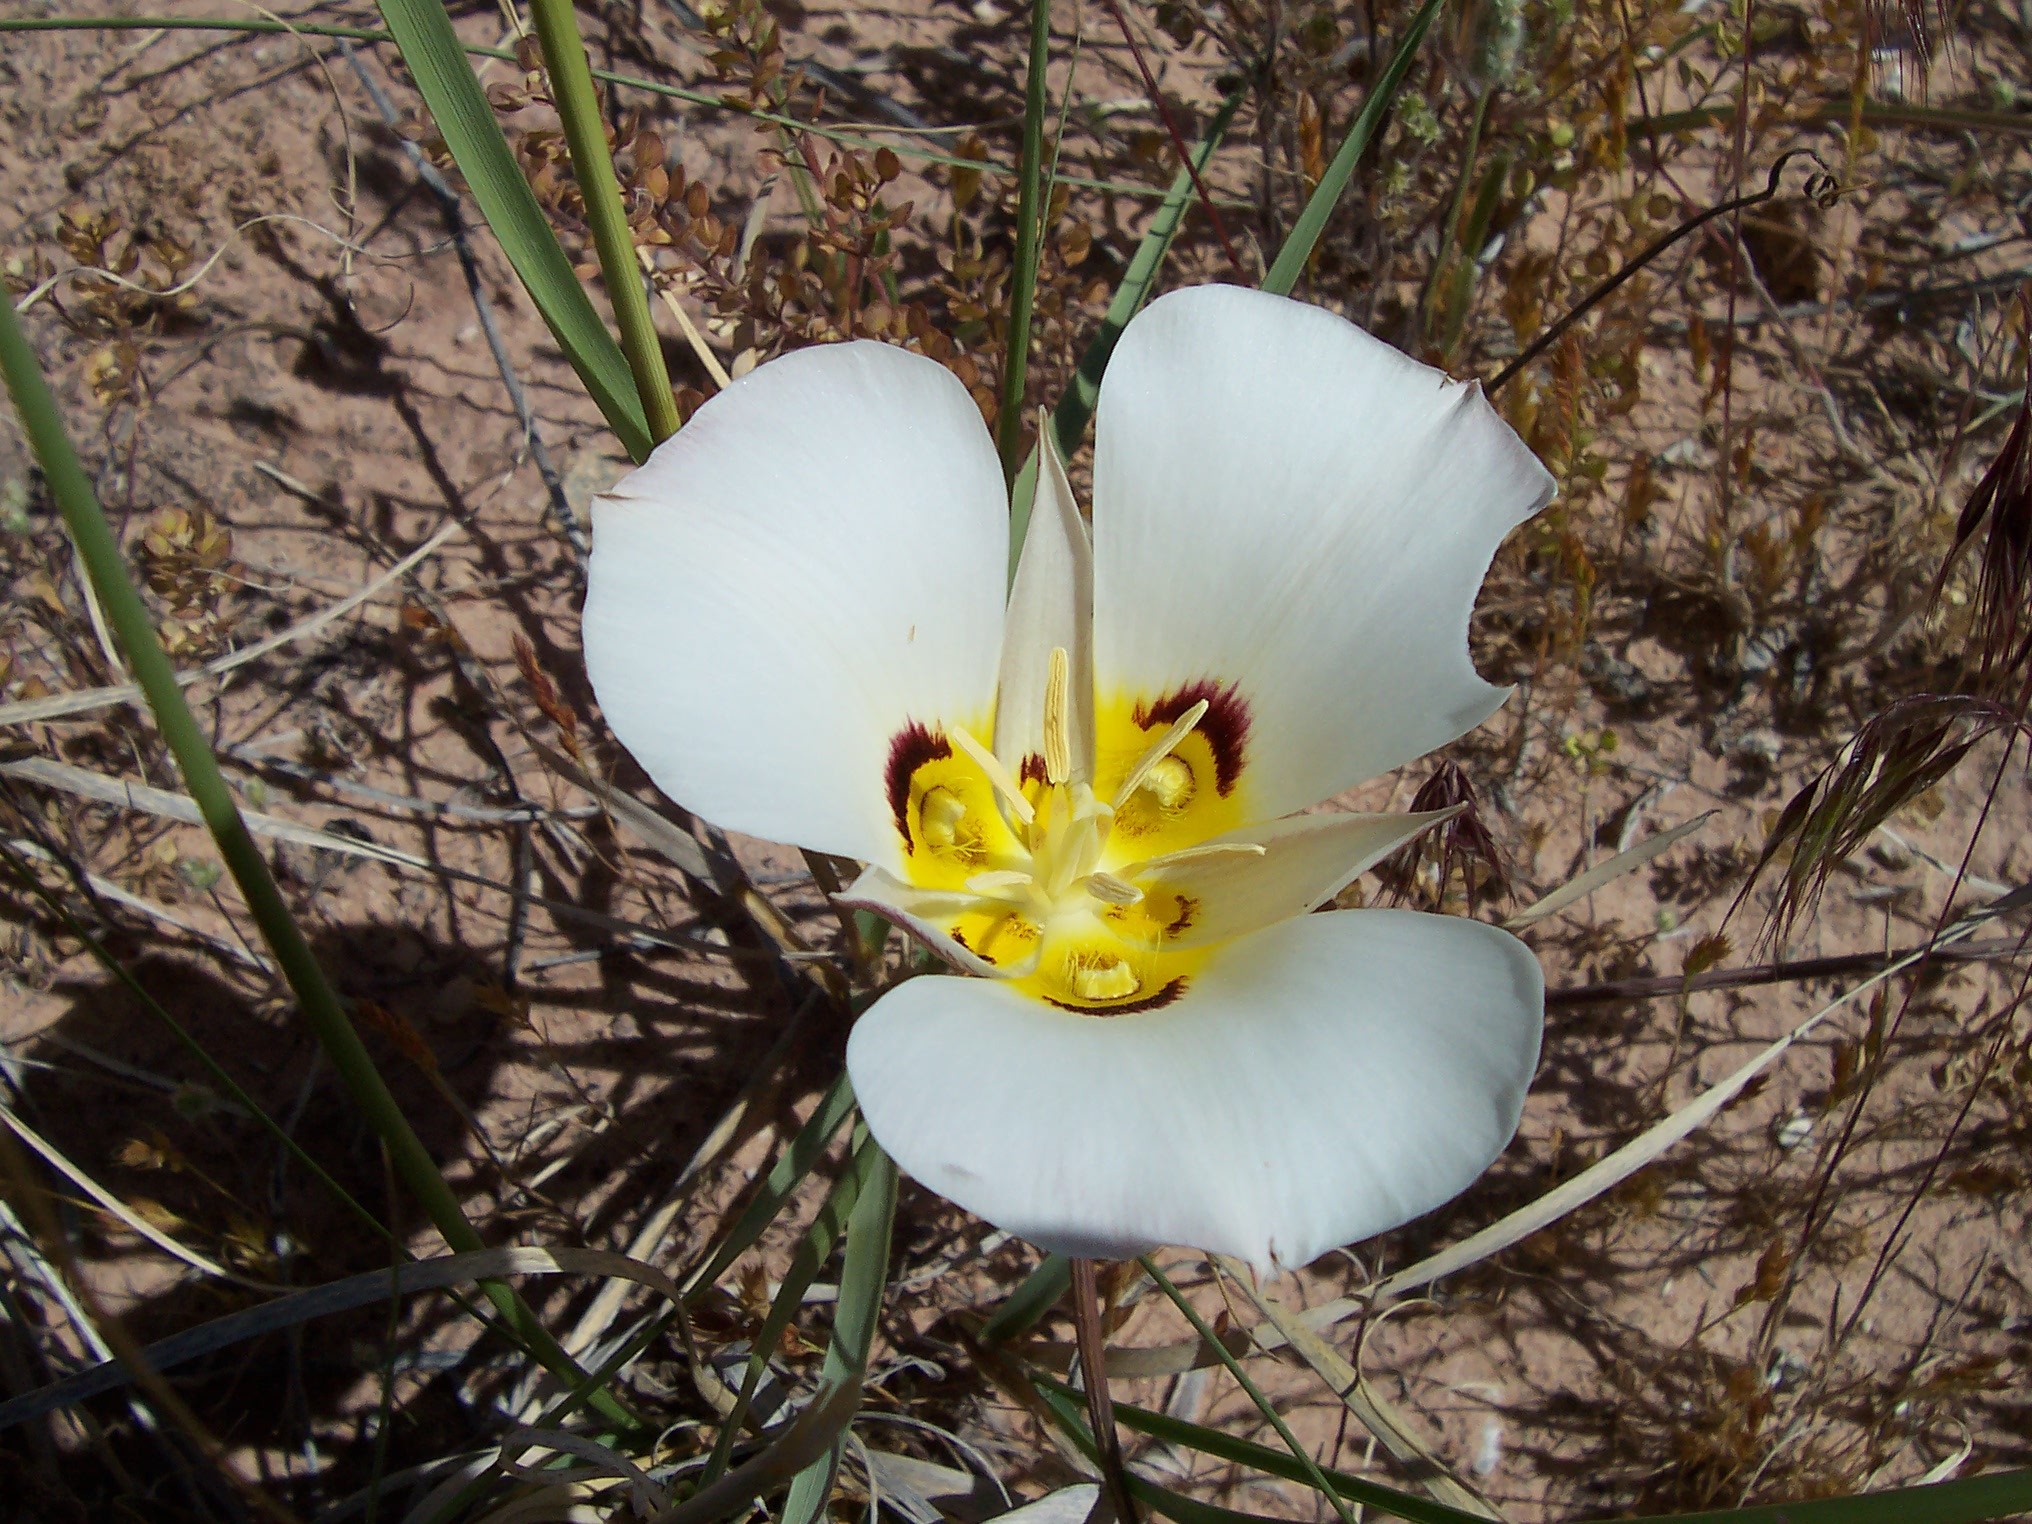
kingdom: Plantae
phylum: Tracheophyta
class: Liliopsida
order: Liliales
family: Liliaceae
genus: Calochortus
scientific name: Calochortus nuttallii
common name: Sego-lily
